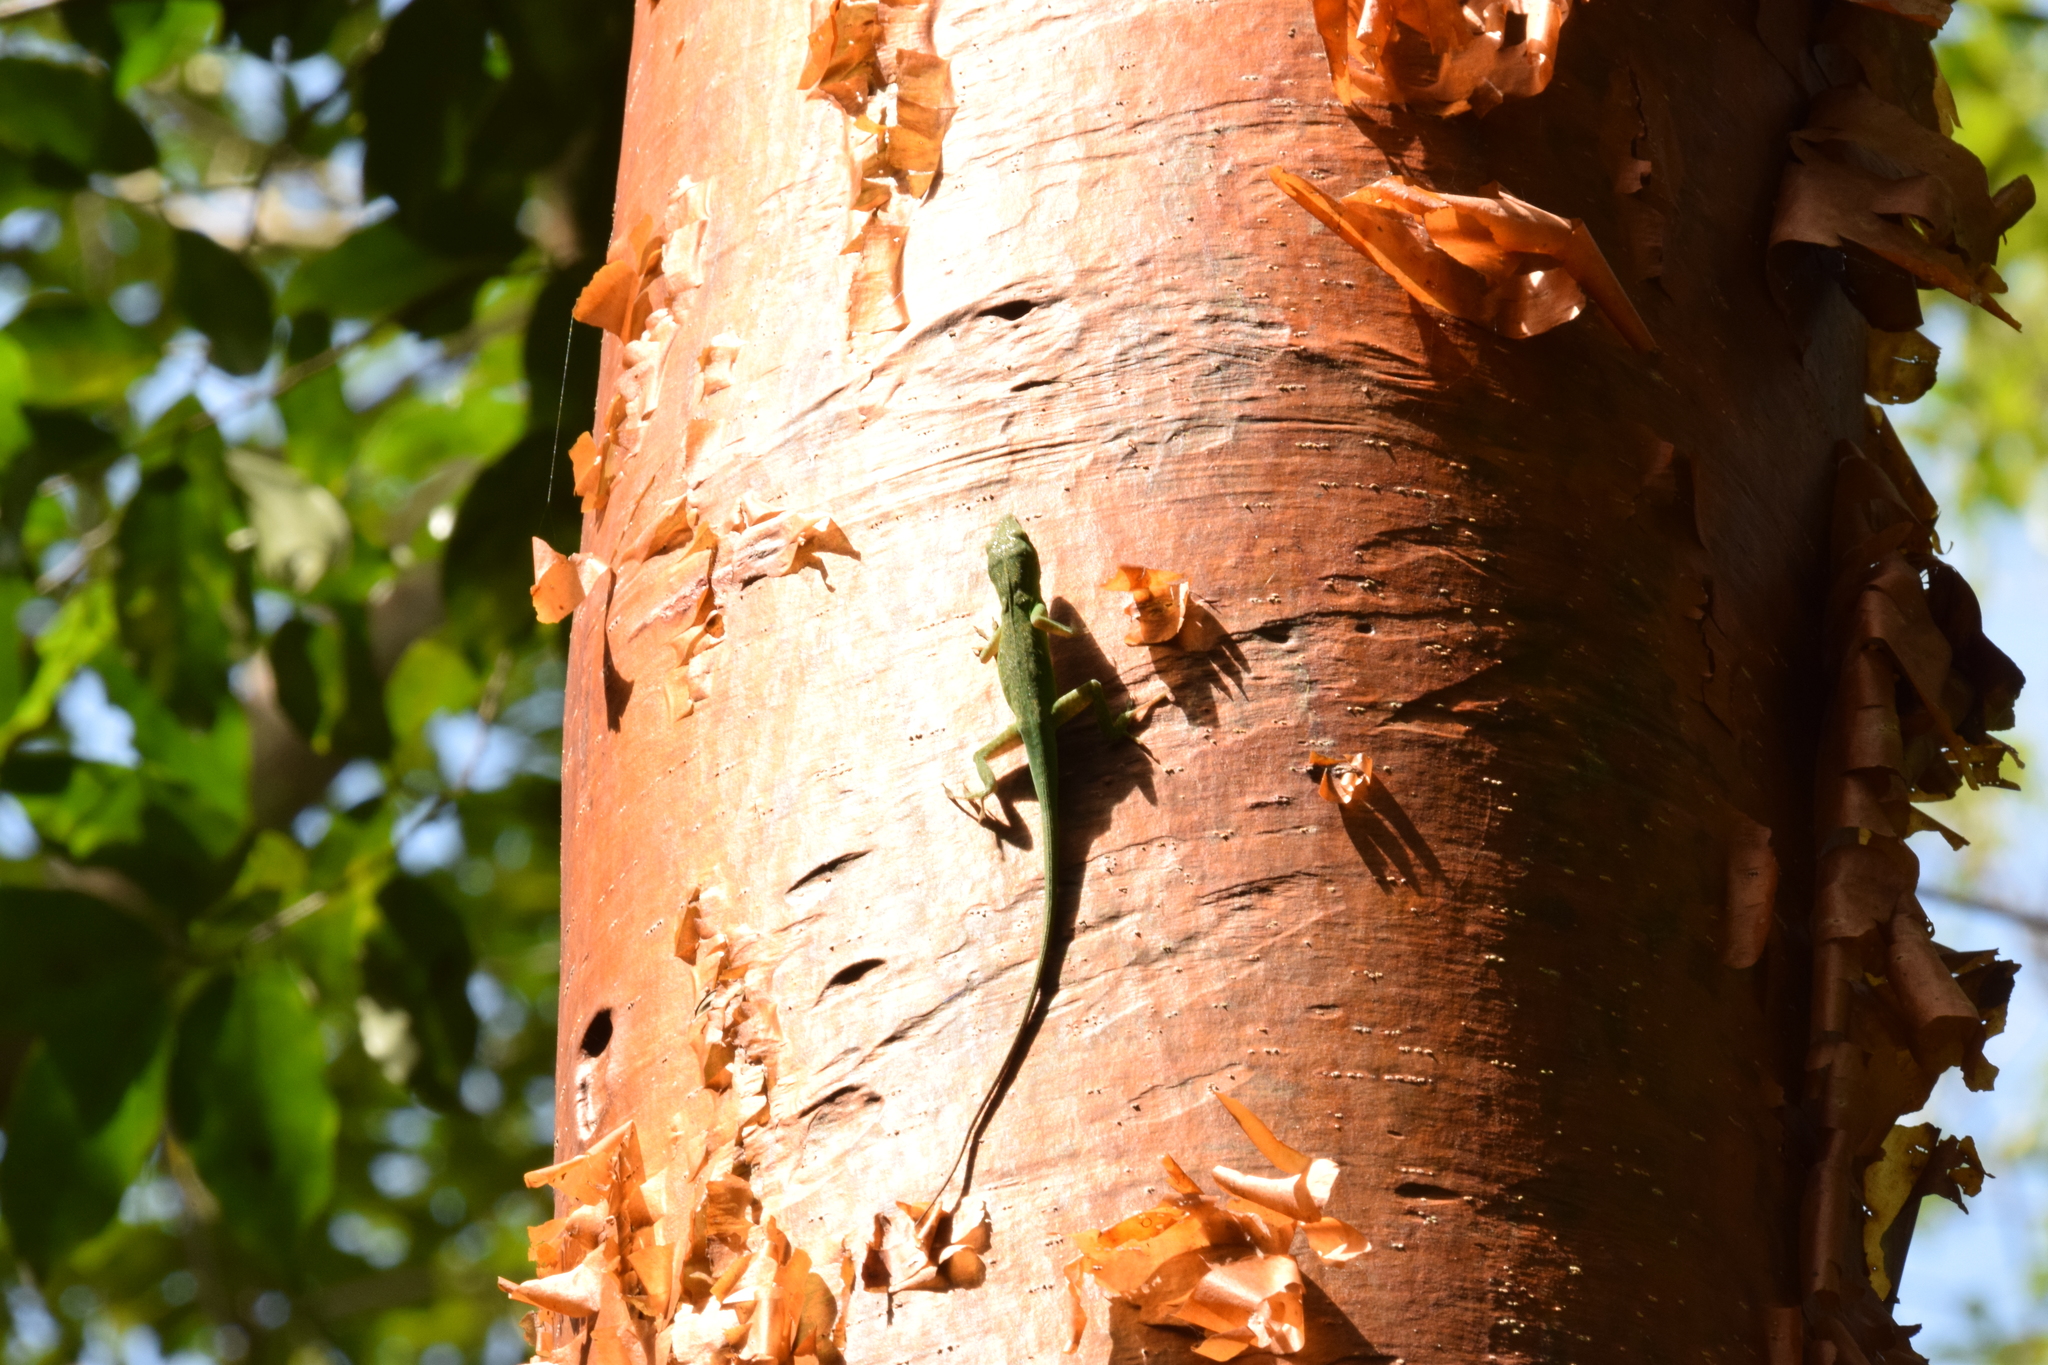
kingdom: Animalia
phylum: Chordata
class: Squamata
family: Dactyloidae
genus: Anolis
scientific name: Anolis carolinensis
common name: Green anole
